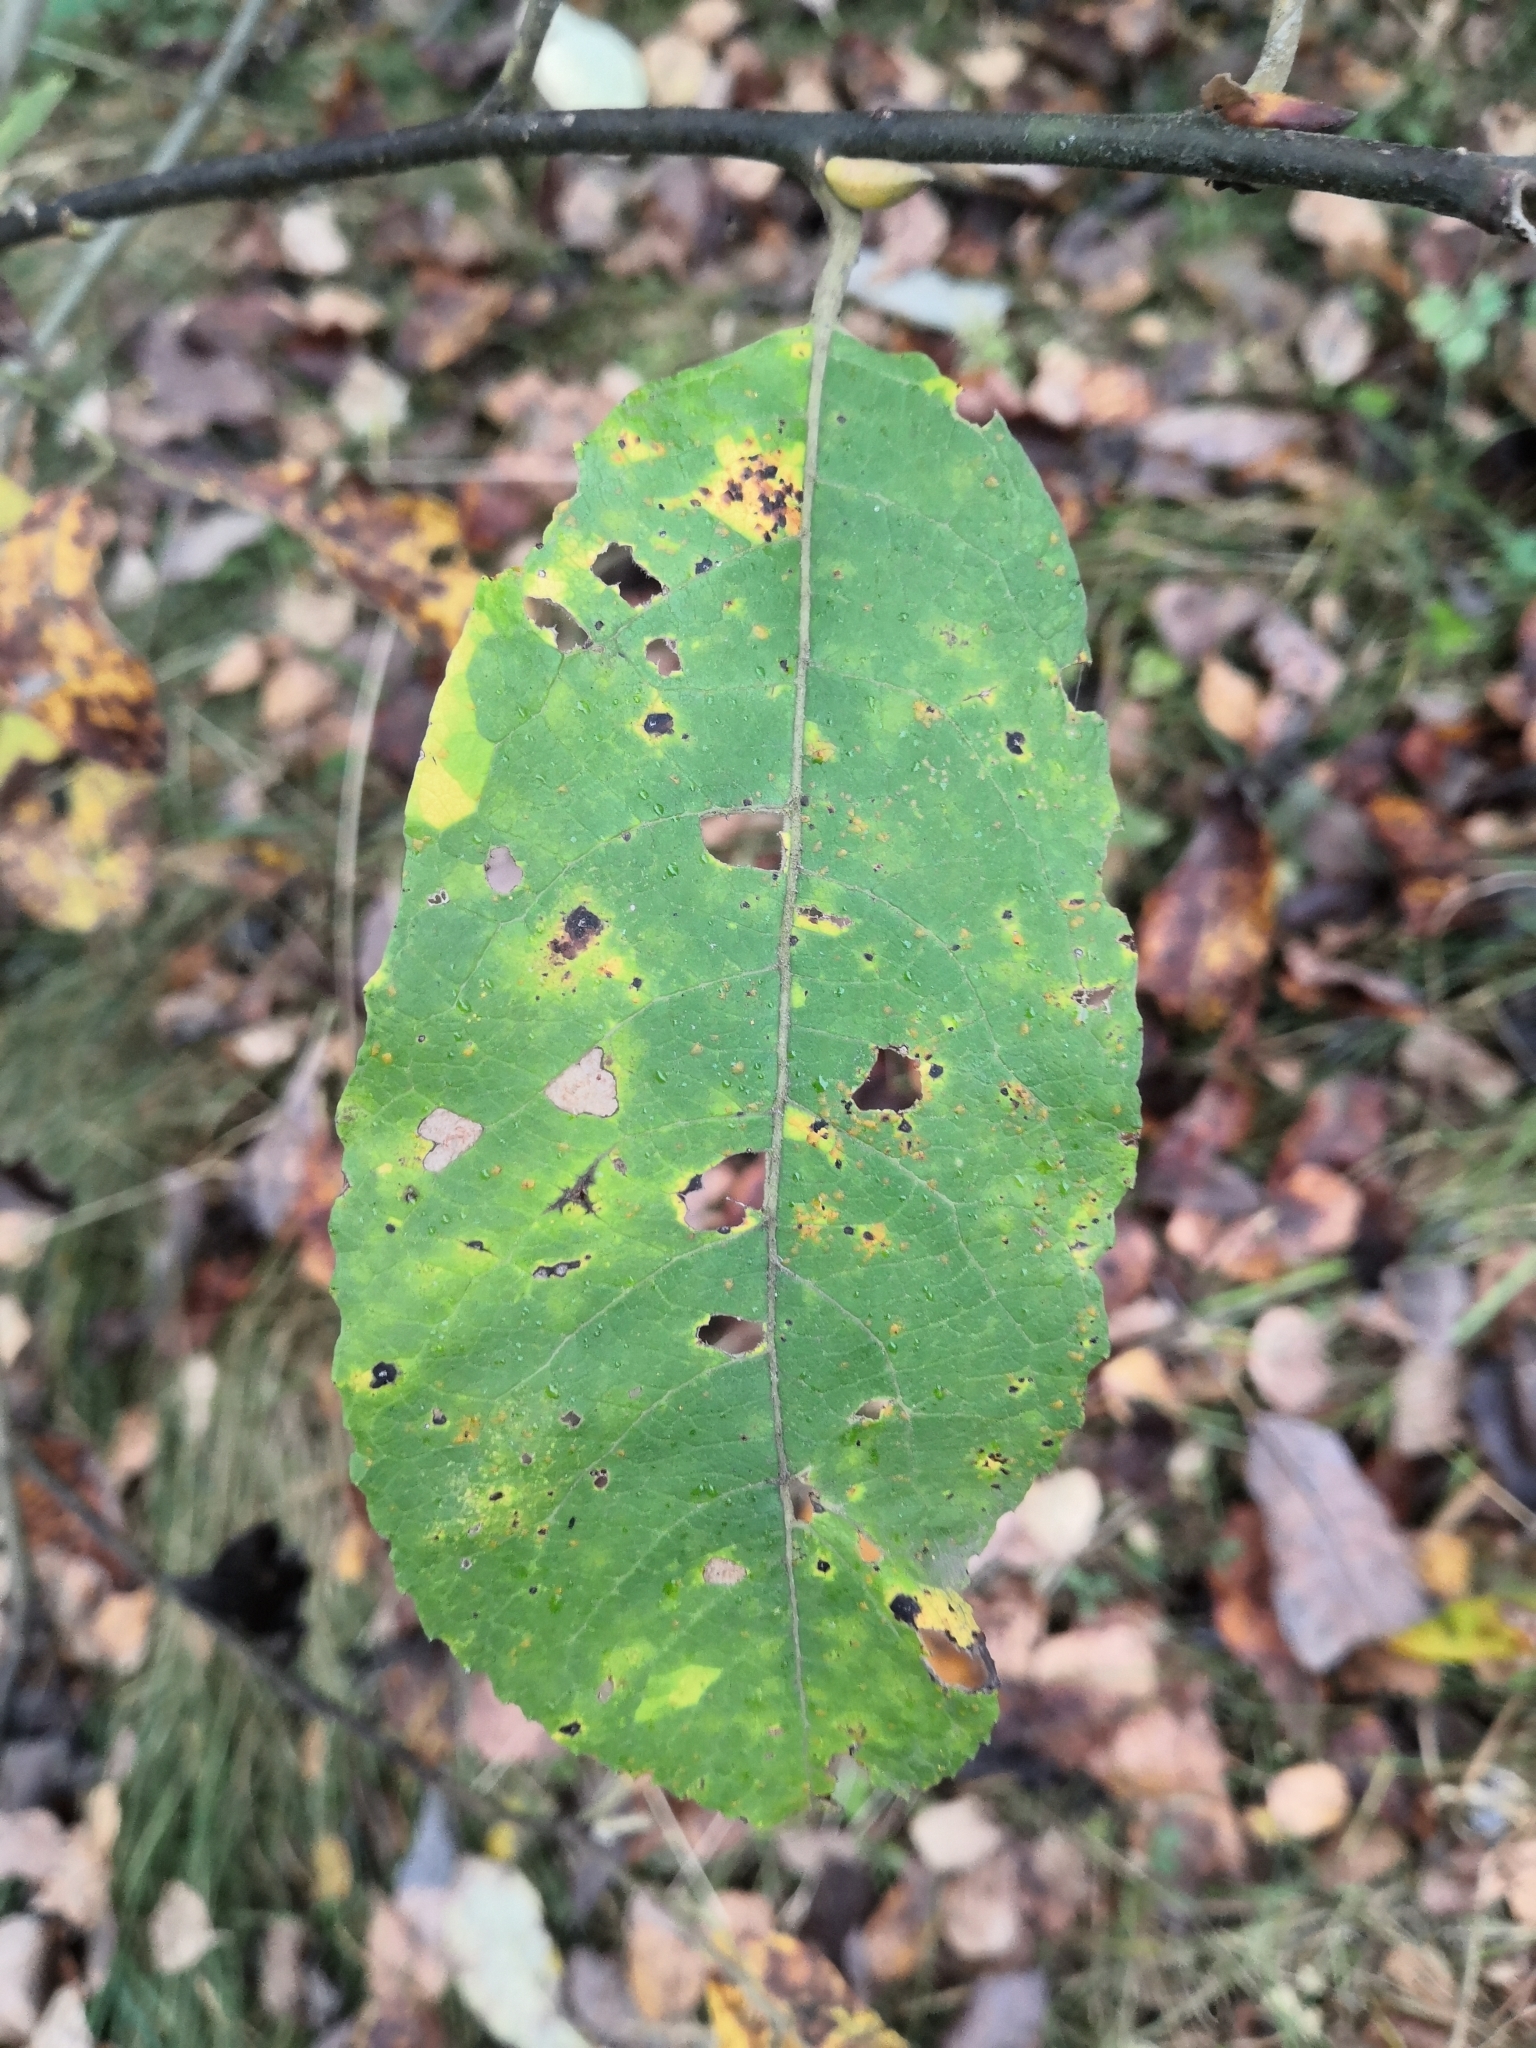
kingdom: Plantae
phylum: Tracheophyta
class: Magnoliopsida
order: Malpighiales
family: Salicaceae
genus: Salix
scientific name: Salix caprea
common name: Goat willow
